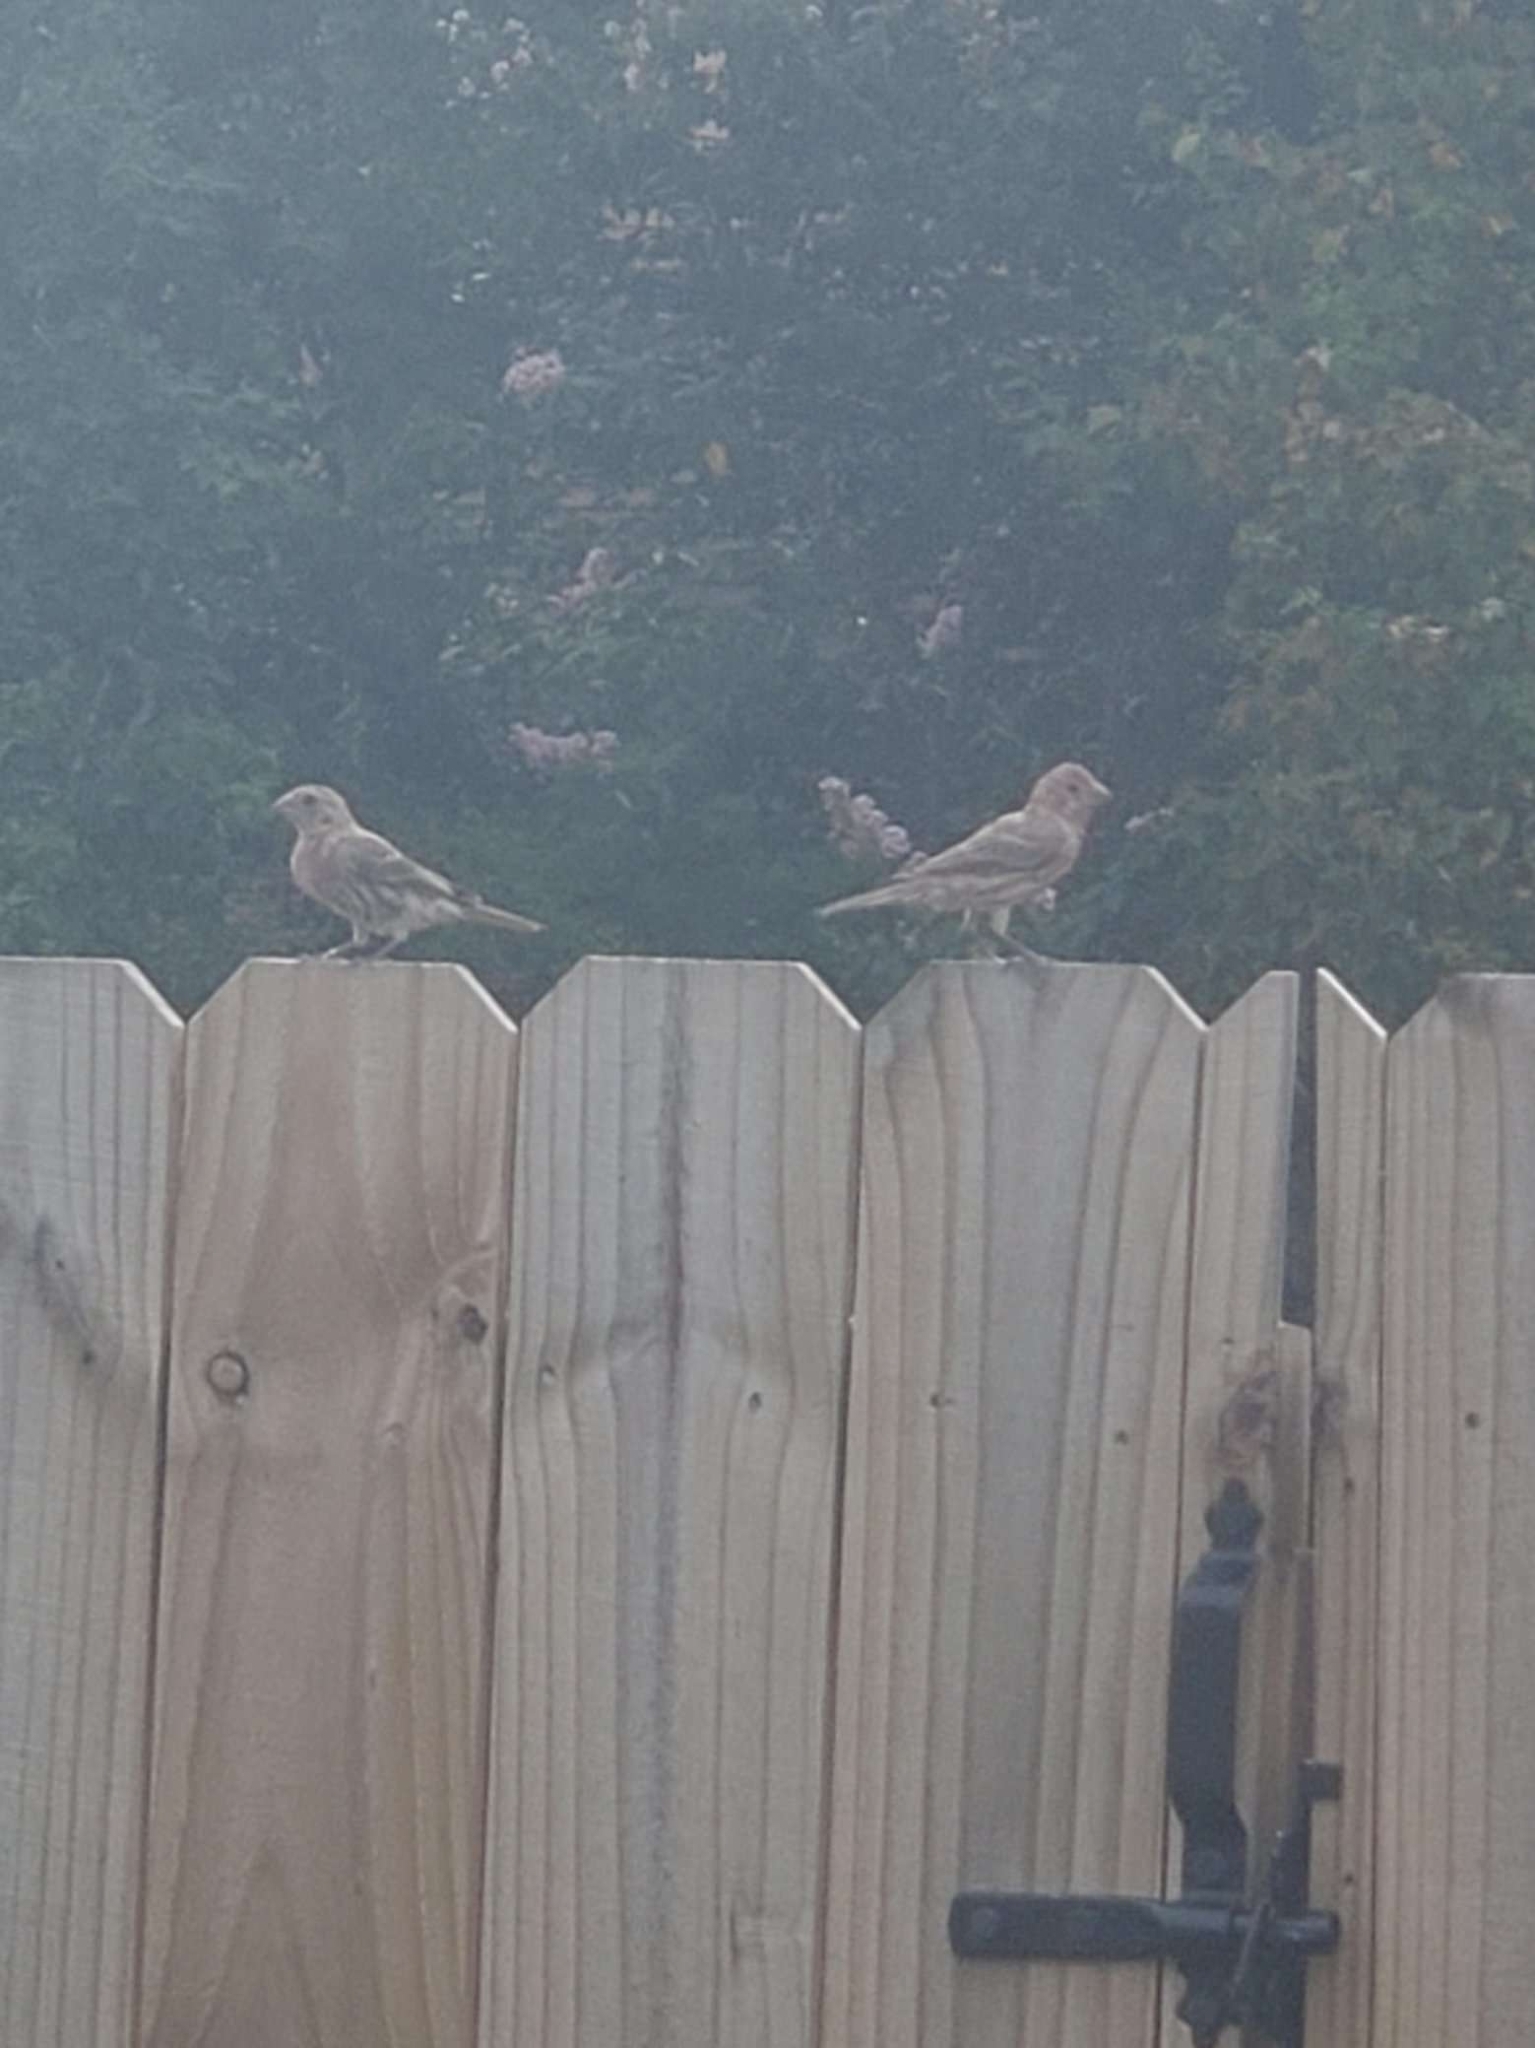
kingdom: Animalia
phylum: Chordata
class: Aves
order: Passeriformes
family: Fringillidae
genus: Haemorhous
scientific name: Haemorhous mexicanus
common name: House finch
